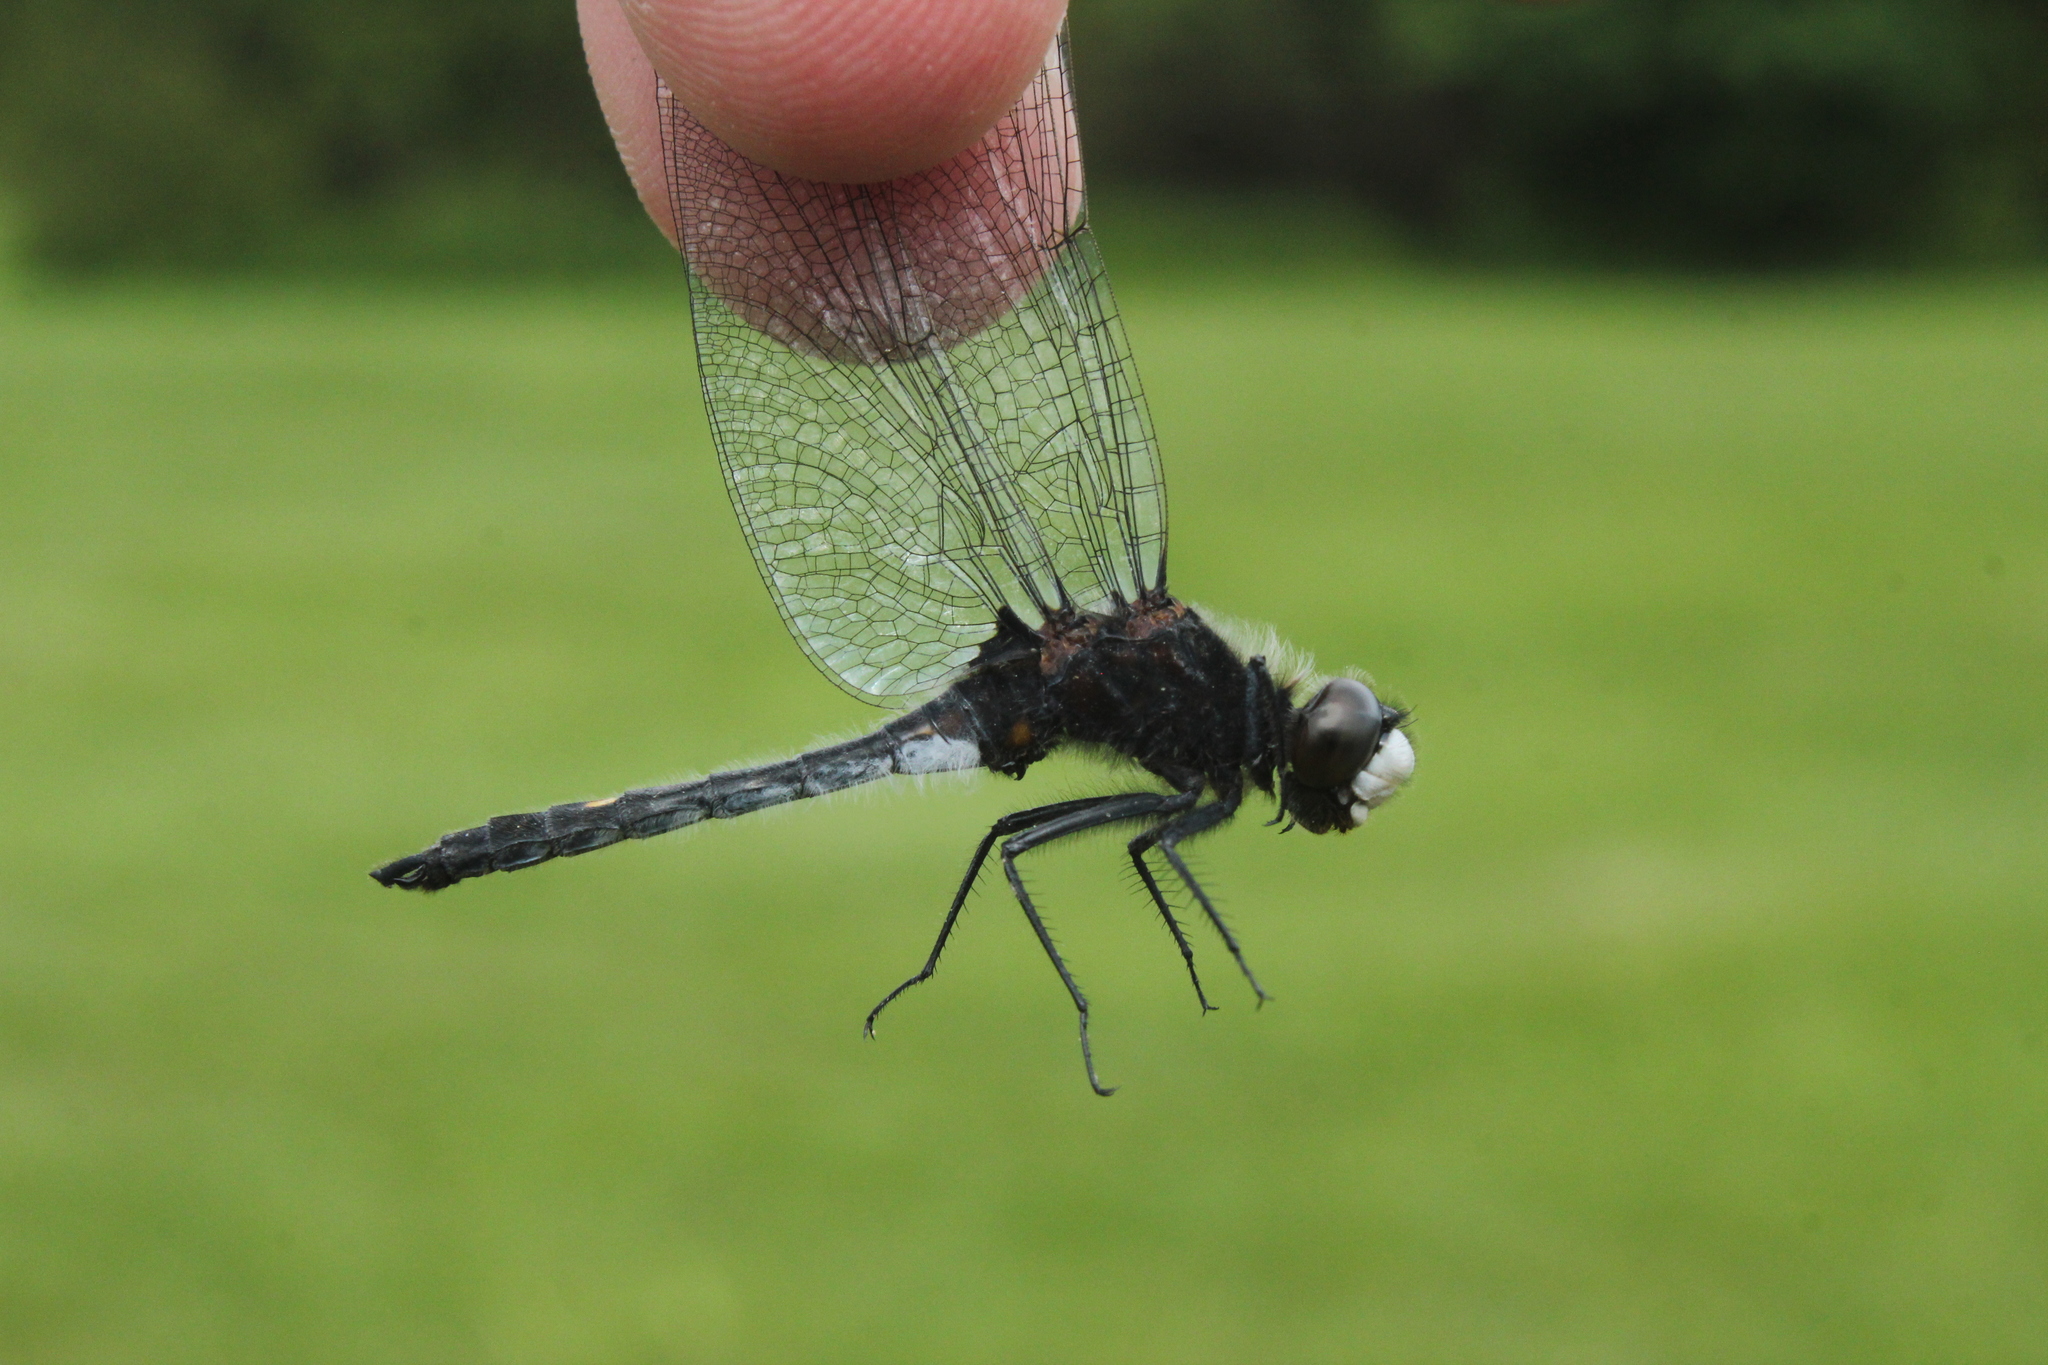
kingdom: Animalia
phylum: Arthropoda
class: Insecta
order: Odonata
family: Libellulidae
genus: Leucorrhinia
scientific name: Leucorrhinia intacta
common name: Dot-tailed whiteface
